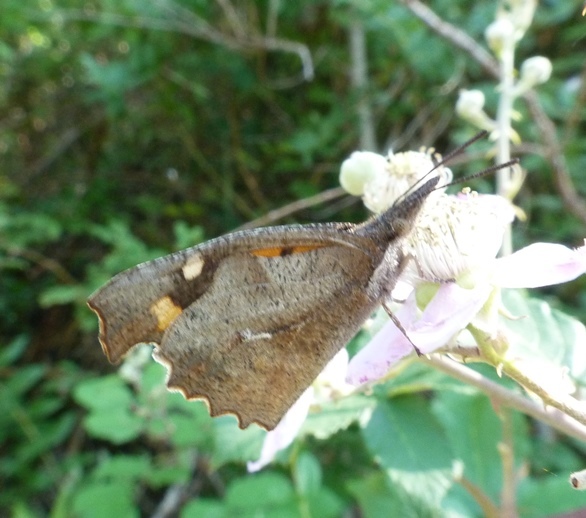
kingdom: Animalia
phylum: Arthropoda
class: Insecta
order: Lepidoptera
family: Nymphalidae
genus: Libythea
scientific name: Libythea celtis
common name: Nettle-tree butterfly
